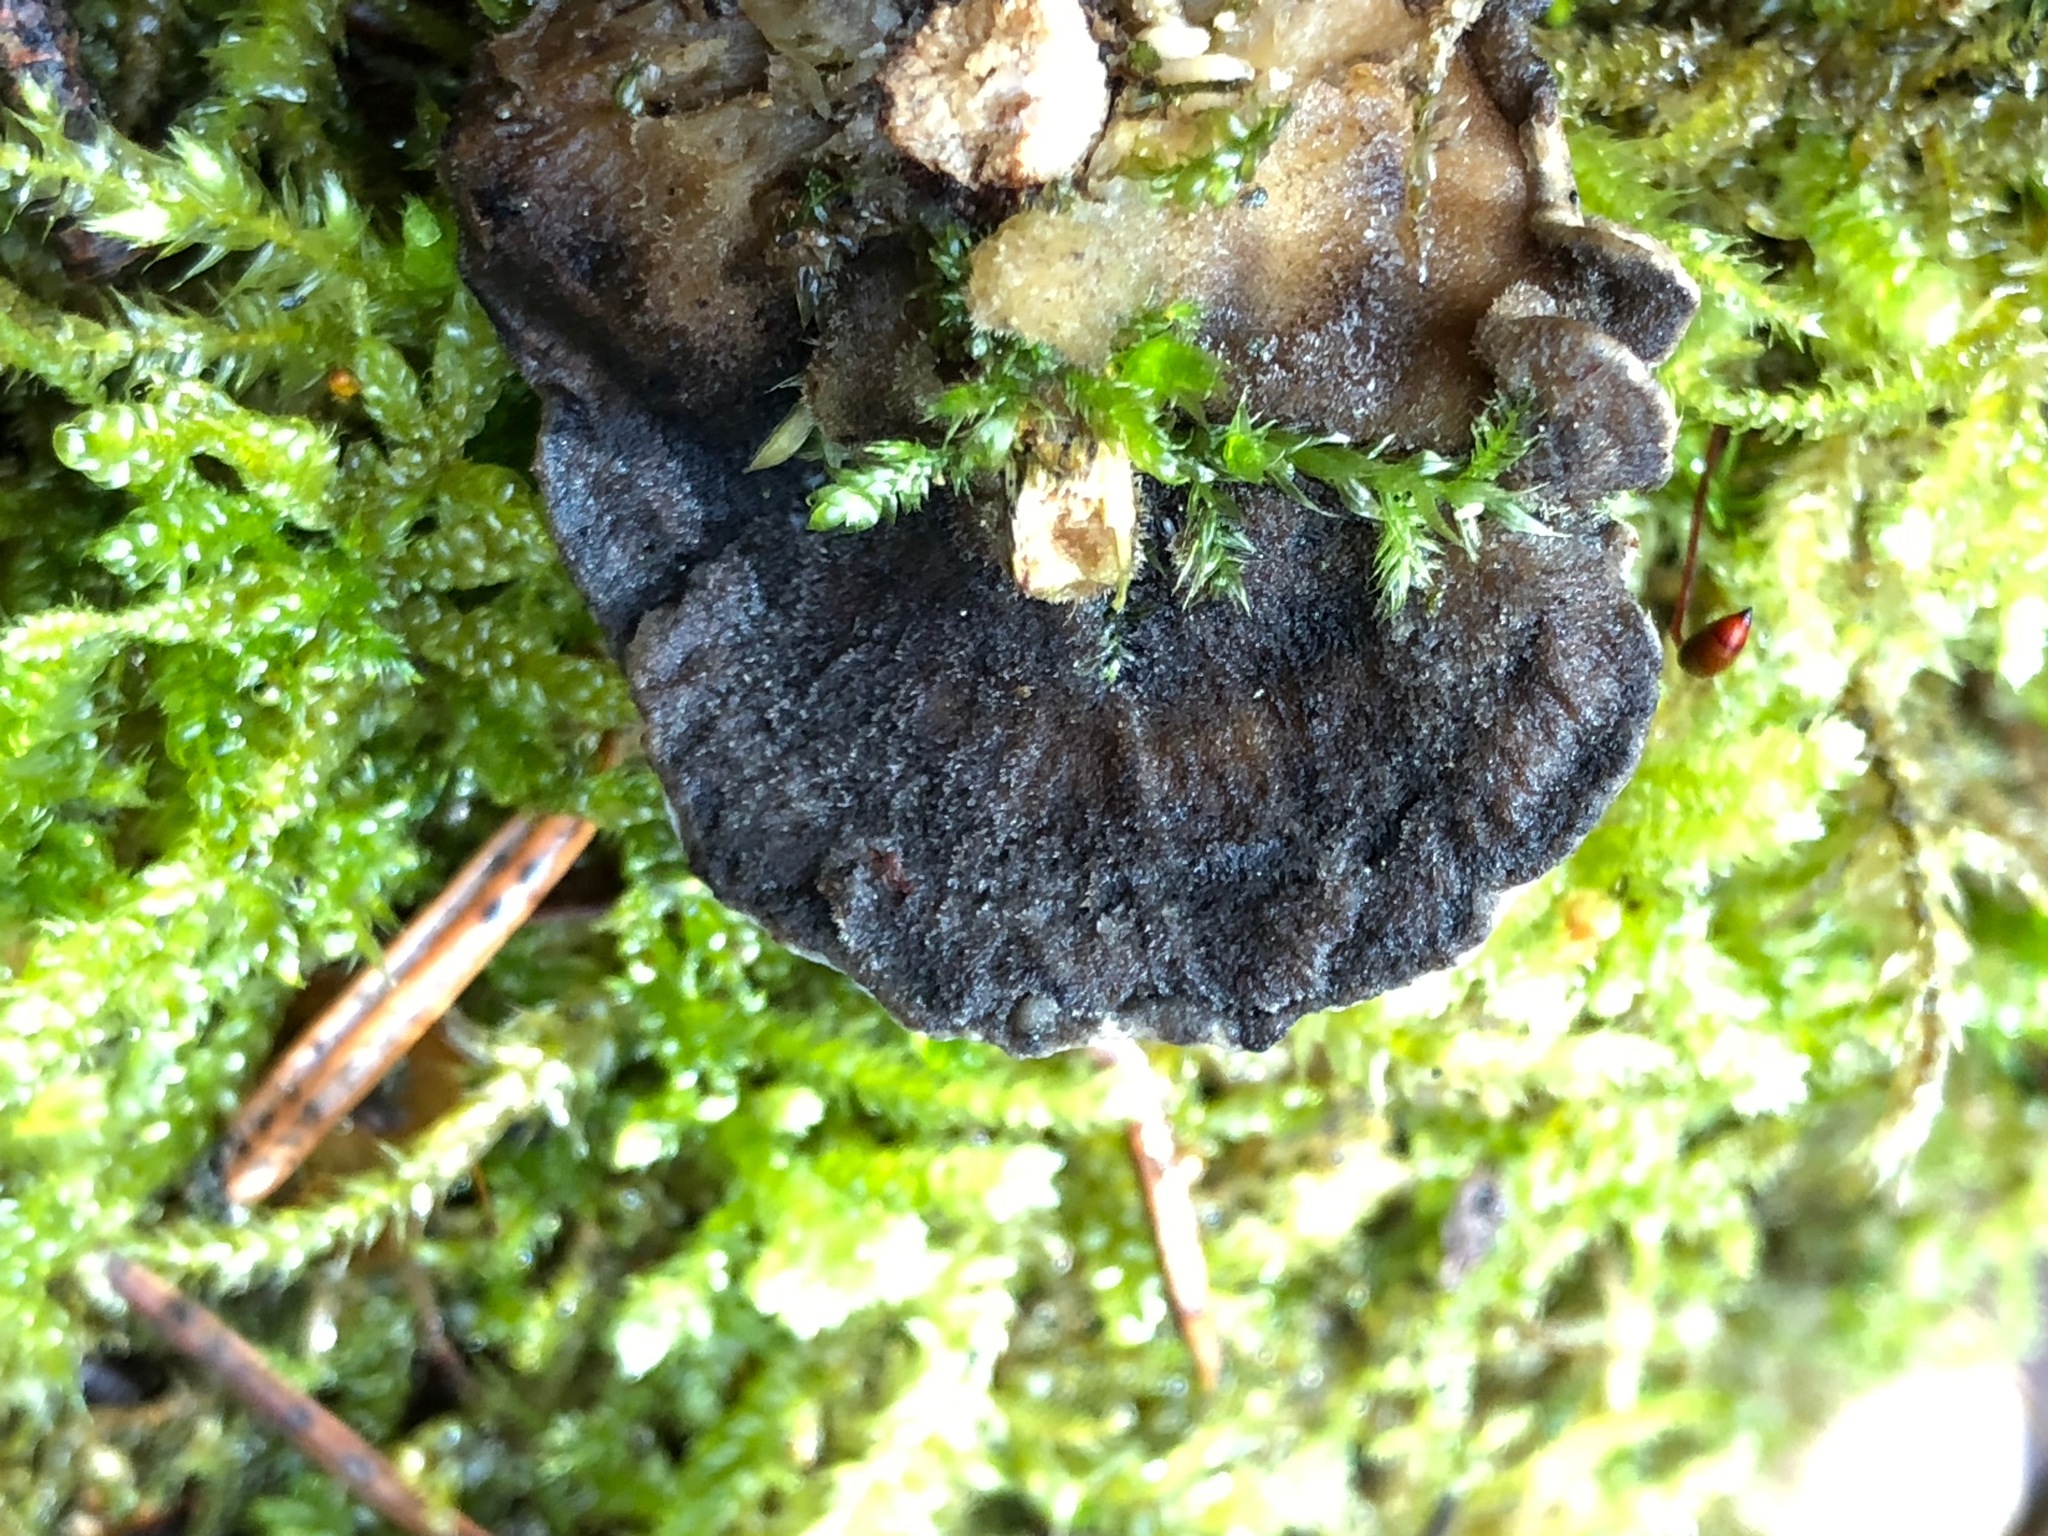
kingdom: Fungi
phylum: Basidiomycota
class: Agaricomycetes
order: Polyporales
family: Phanerochaetaceae
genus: Bjerkandera
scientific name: Bjerkandera adusta
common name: Smoky bracket
